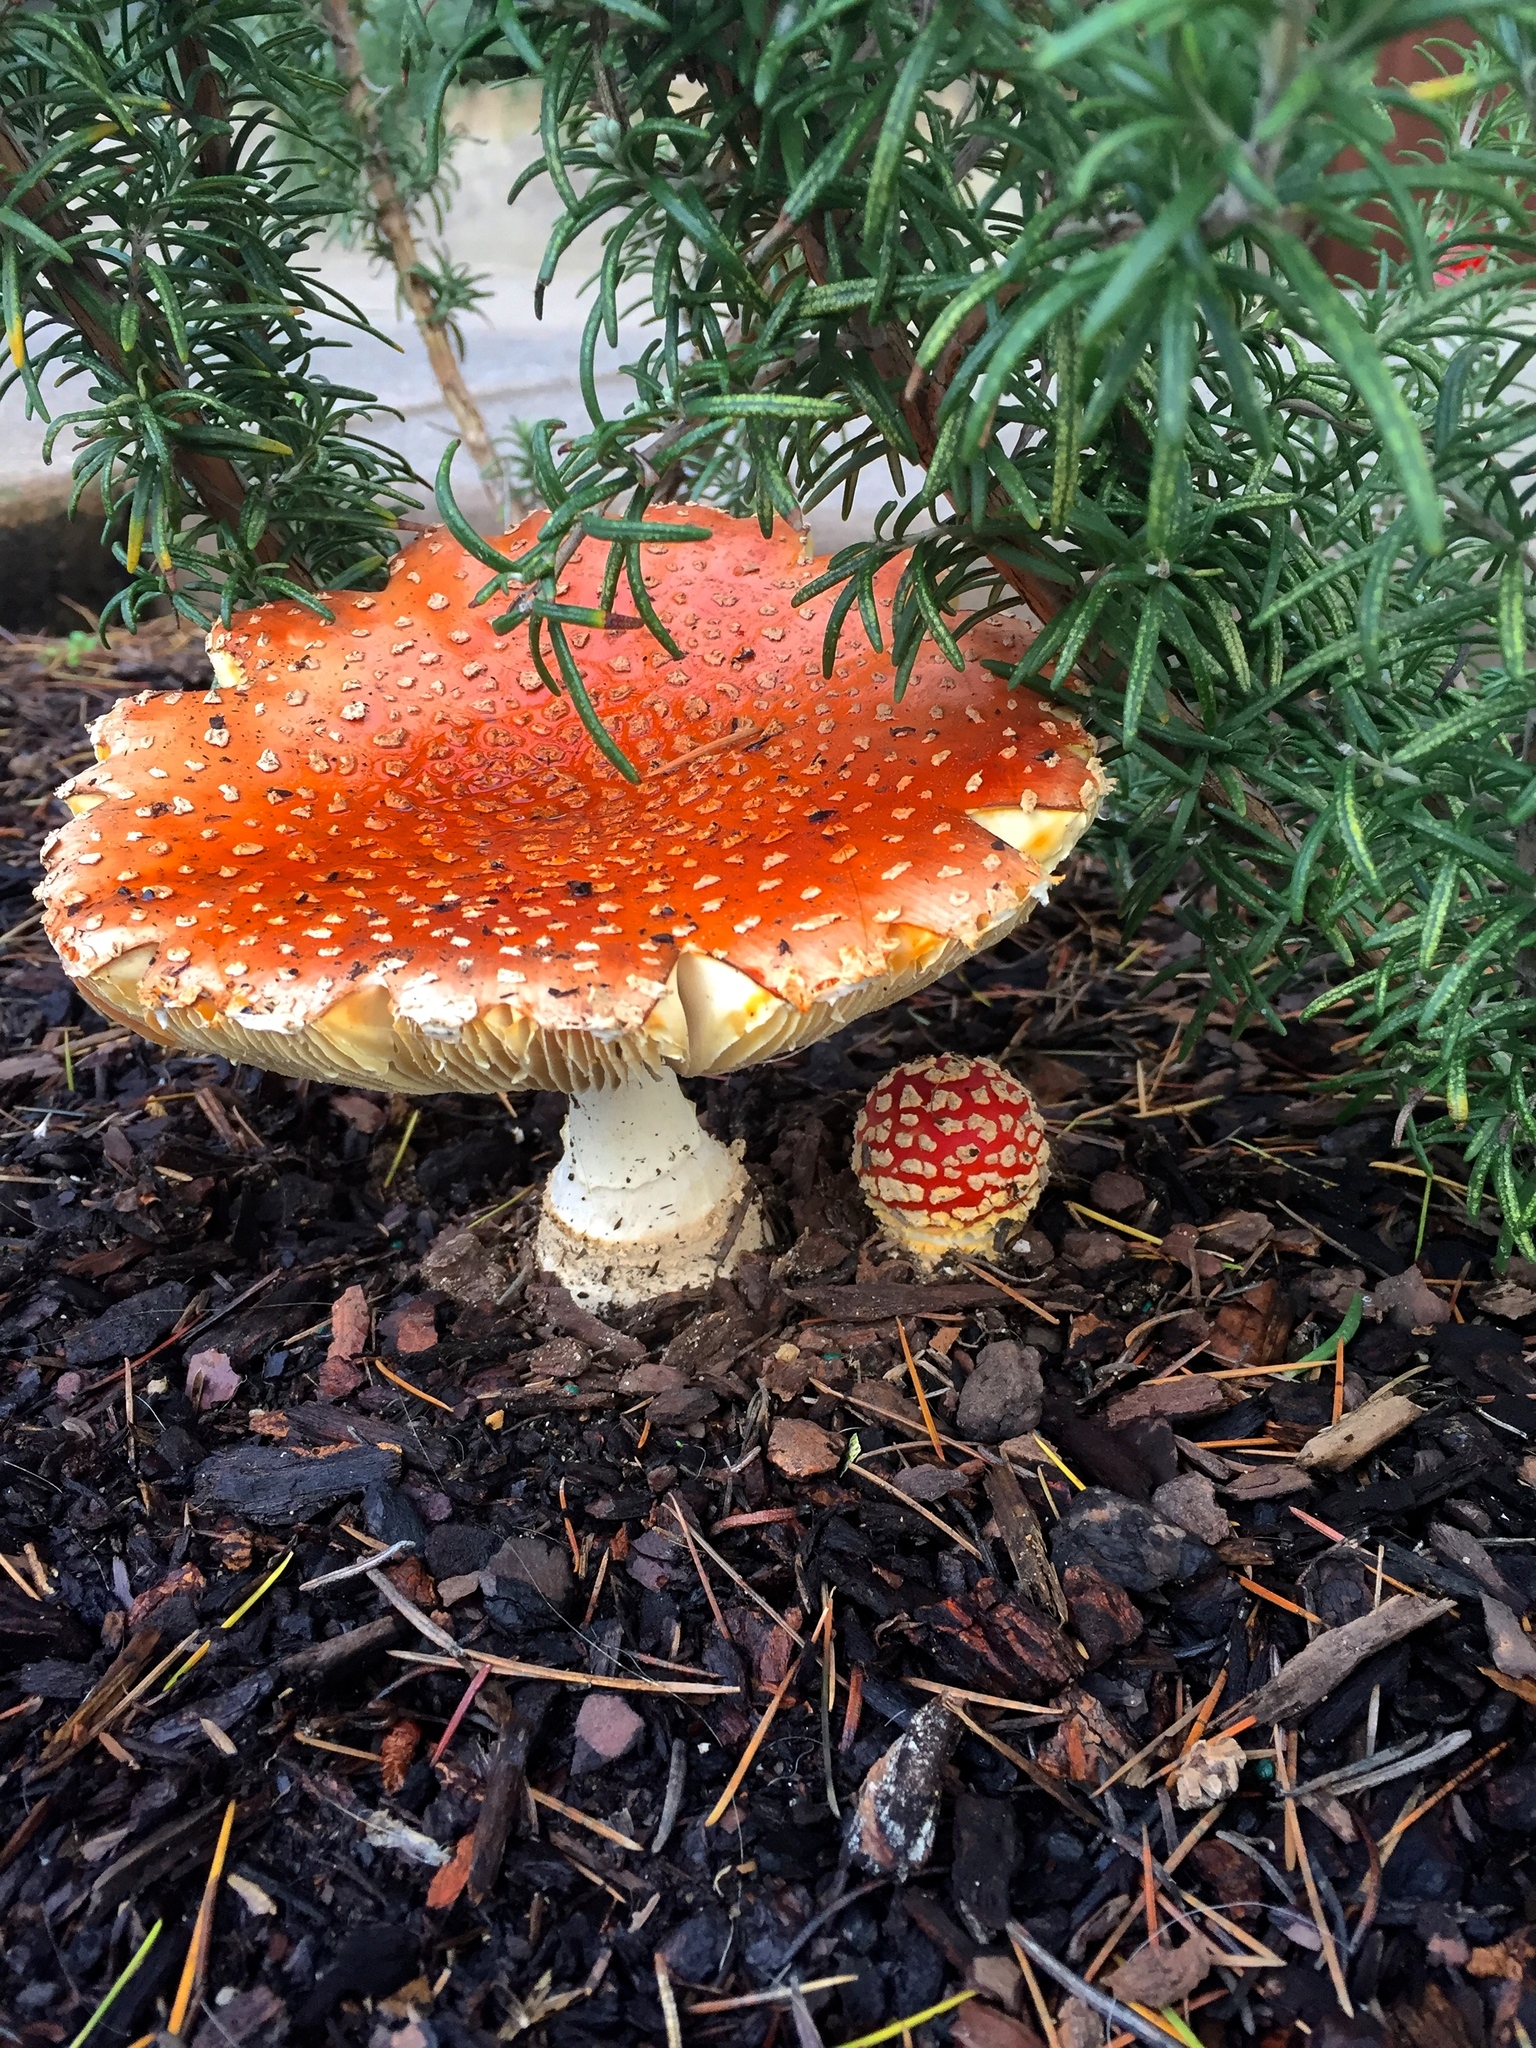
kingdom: Fungi
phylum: Basidiomycota
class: Agaricomycetes
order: Agaricales
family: Amanitaceae
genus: Amanita
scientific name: Amanita muscaria
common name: Fly agaric
